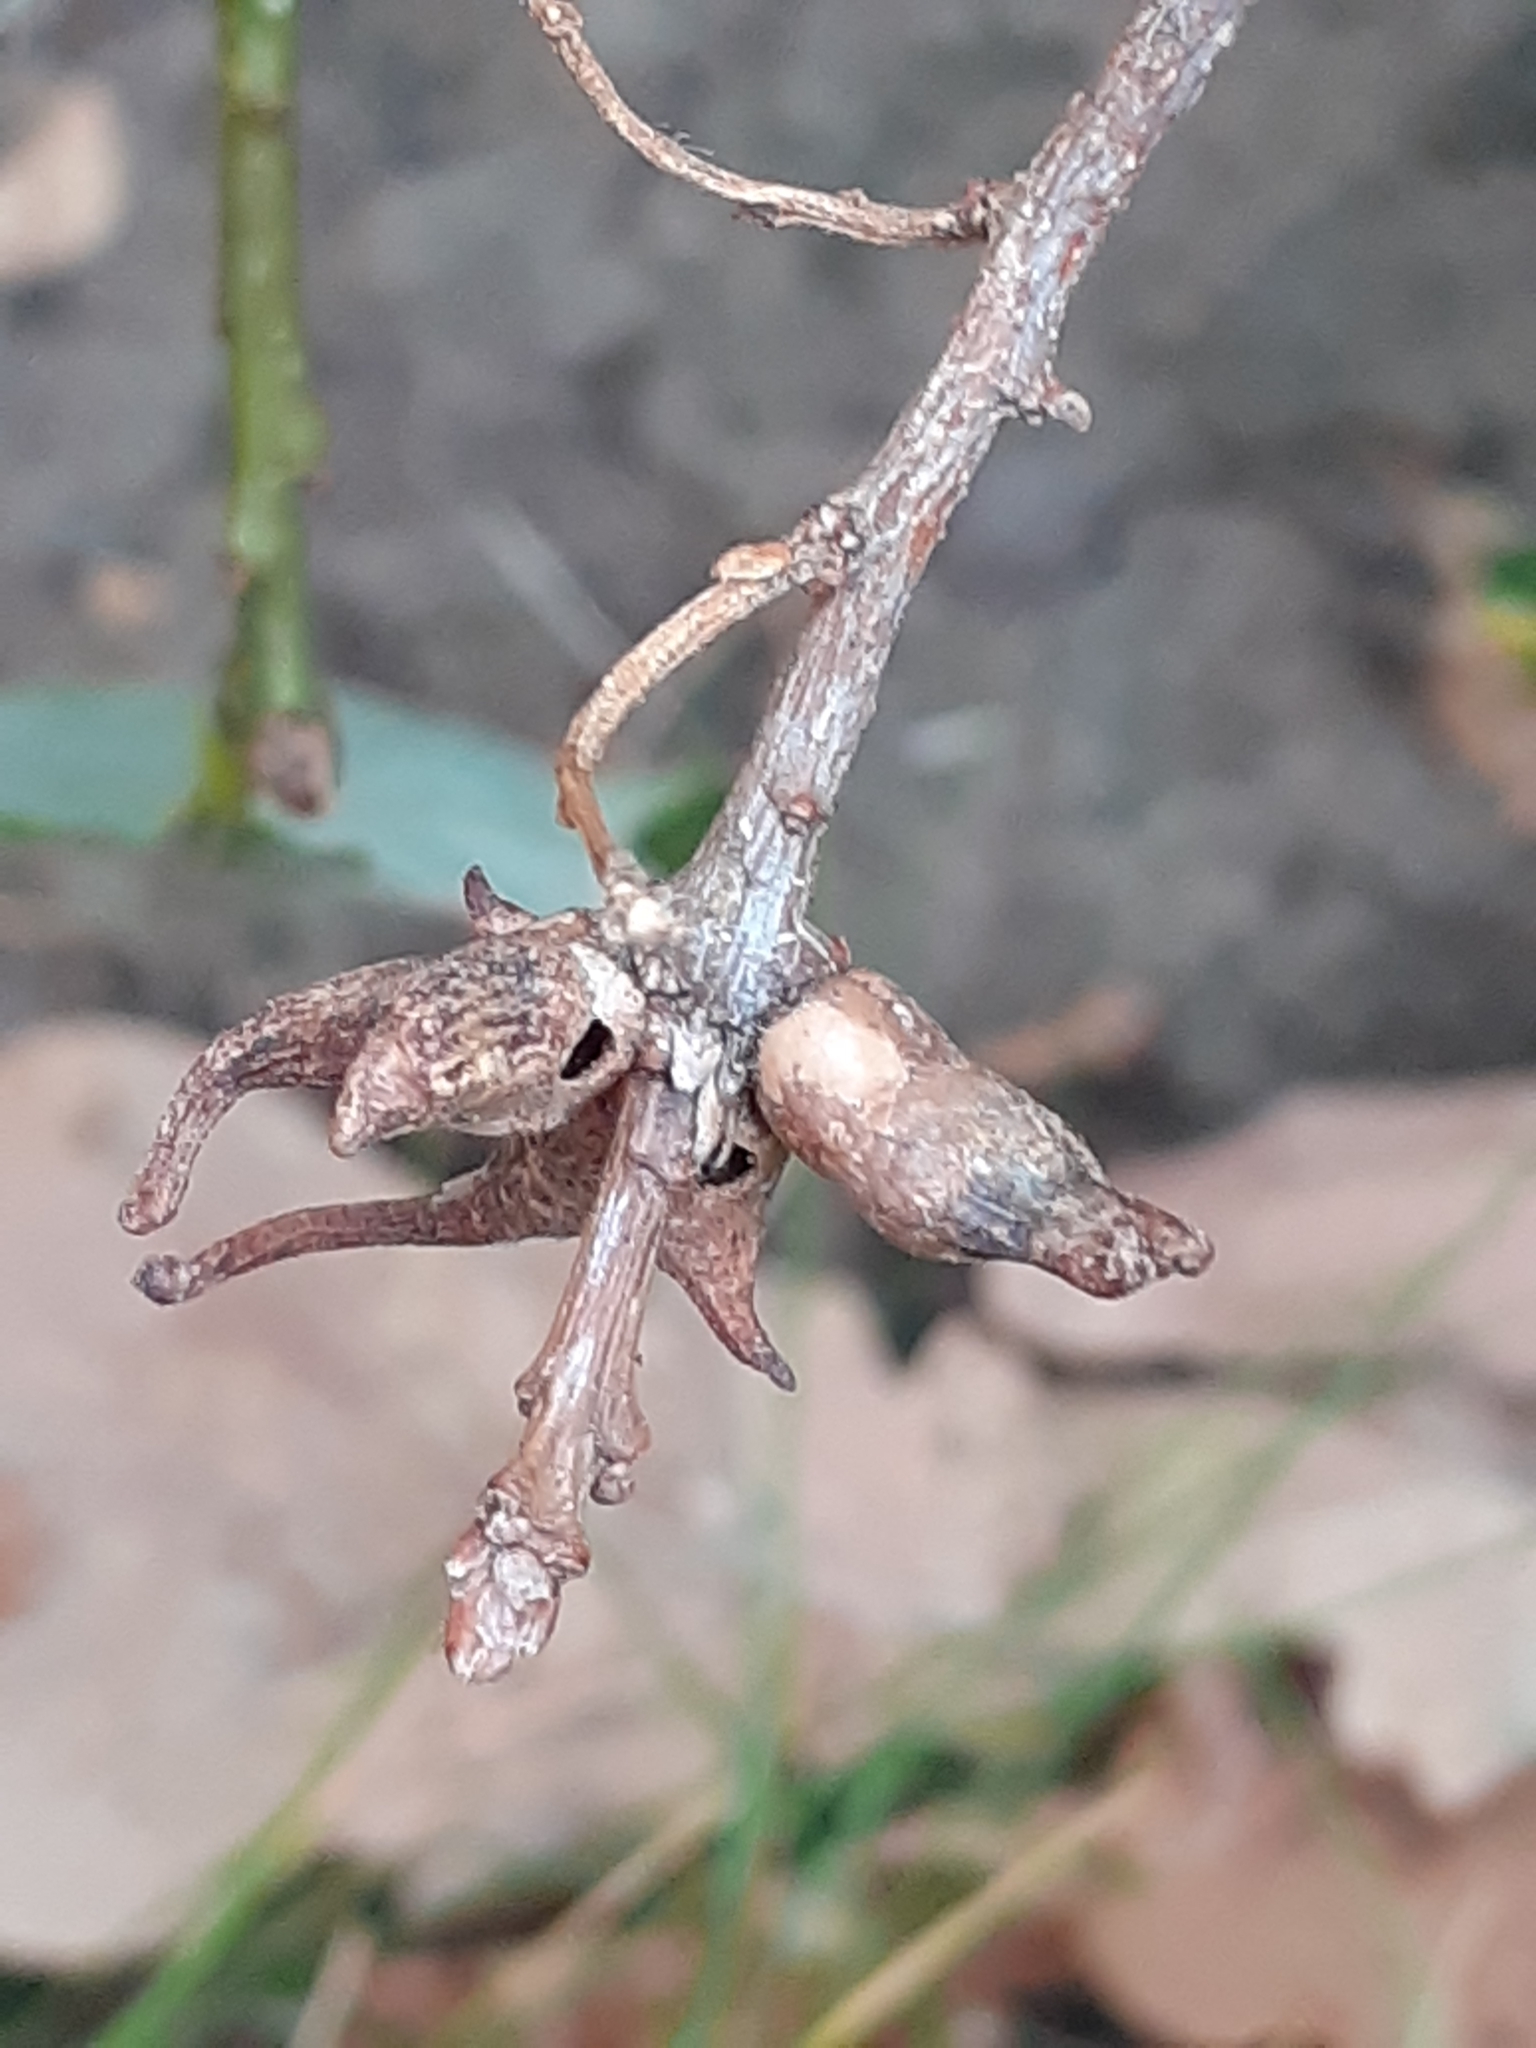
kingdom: Animalia
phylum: Arthropoda
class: Insecta
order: Hymenoptera
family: Cynipidae
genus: Andricus
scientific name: Andricus aries
